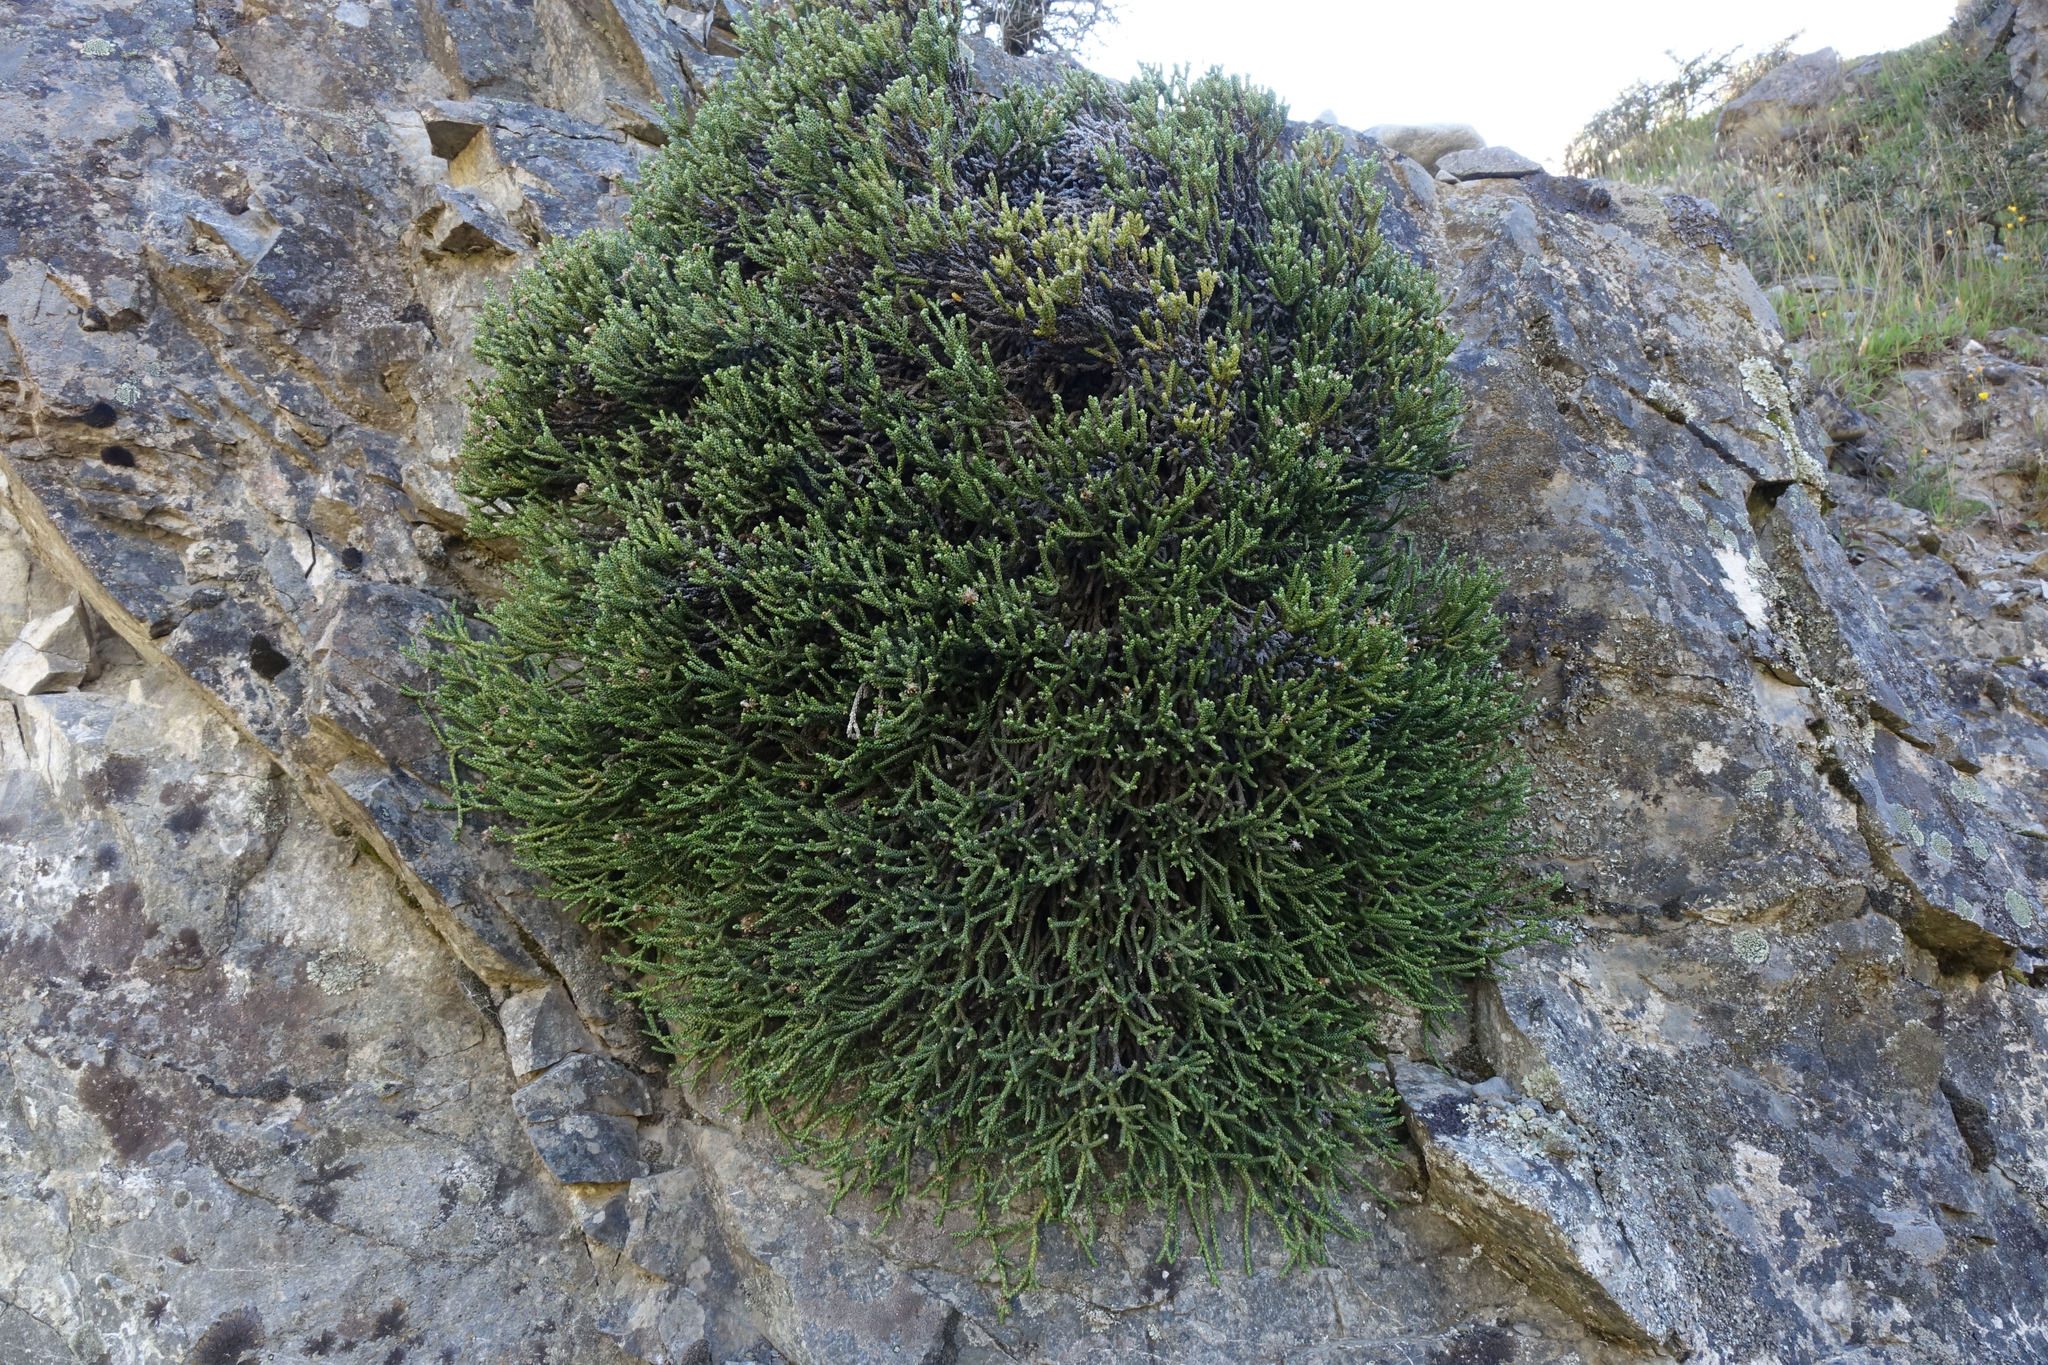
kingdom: Plantae
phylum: Tracheophyta
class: Magnoliopsida
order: Asterales
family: Asteraceae
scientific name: Asteraceae
